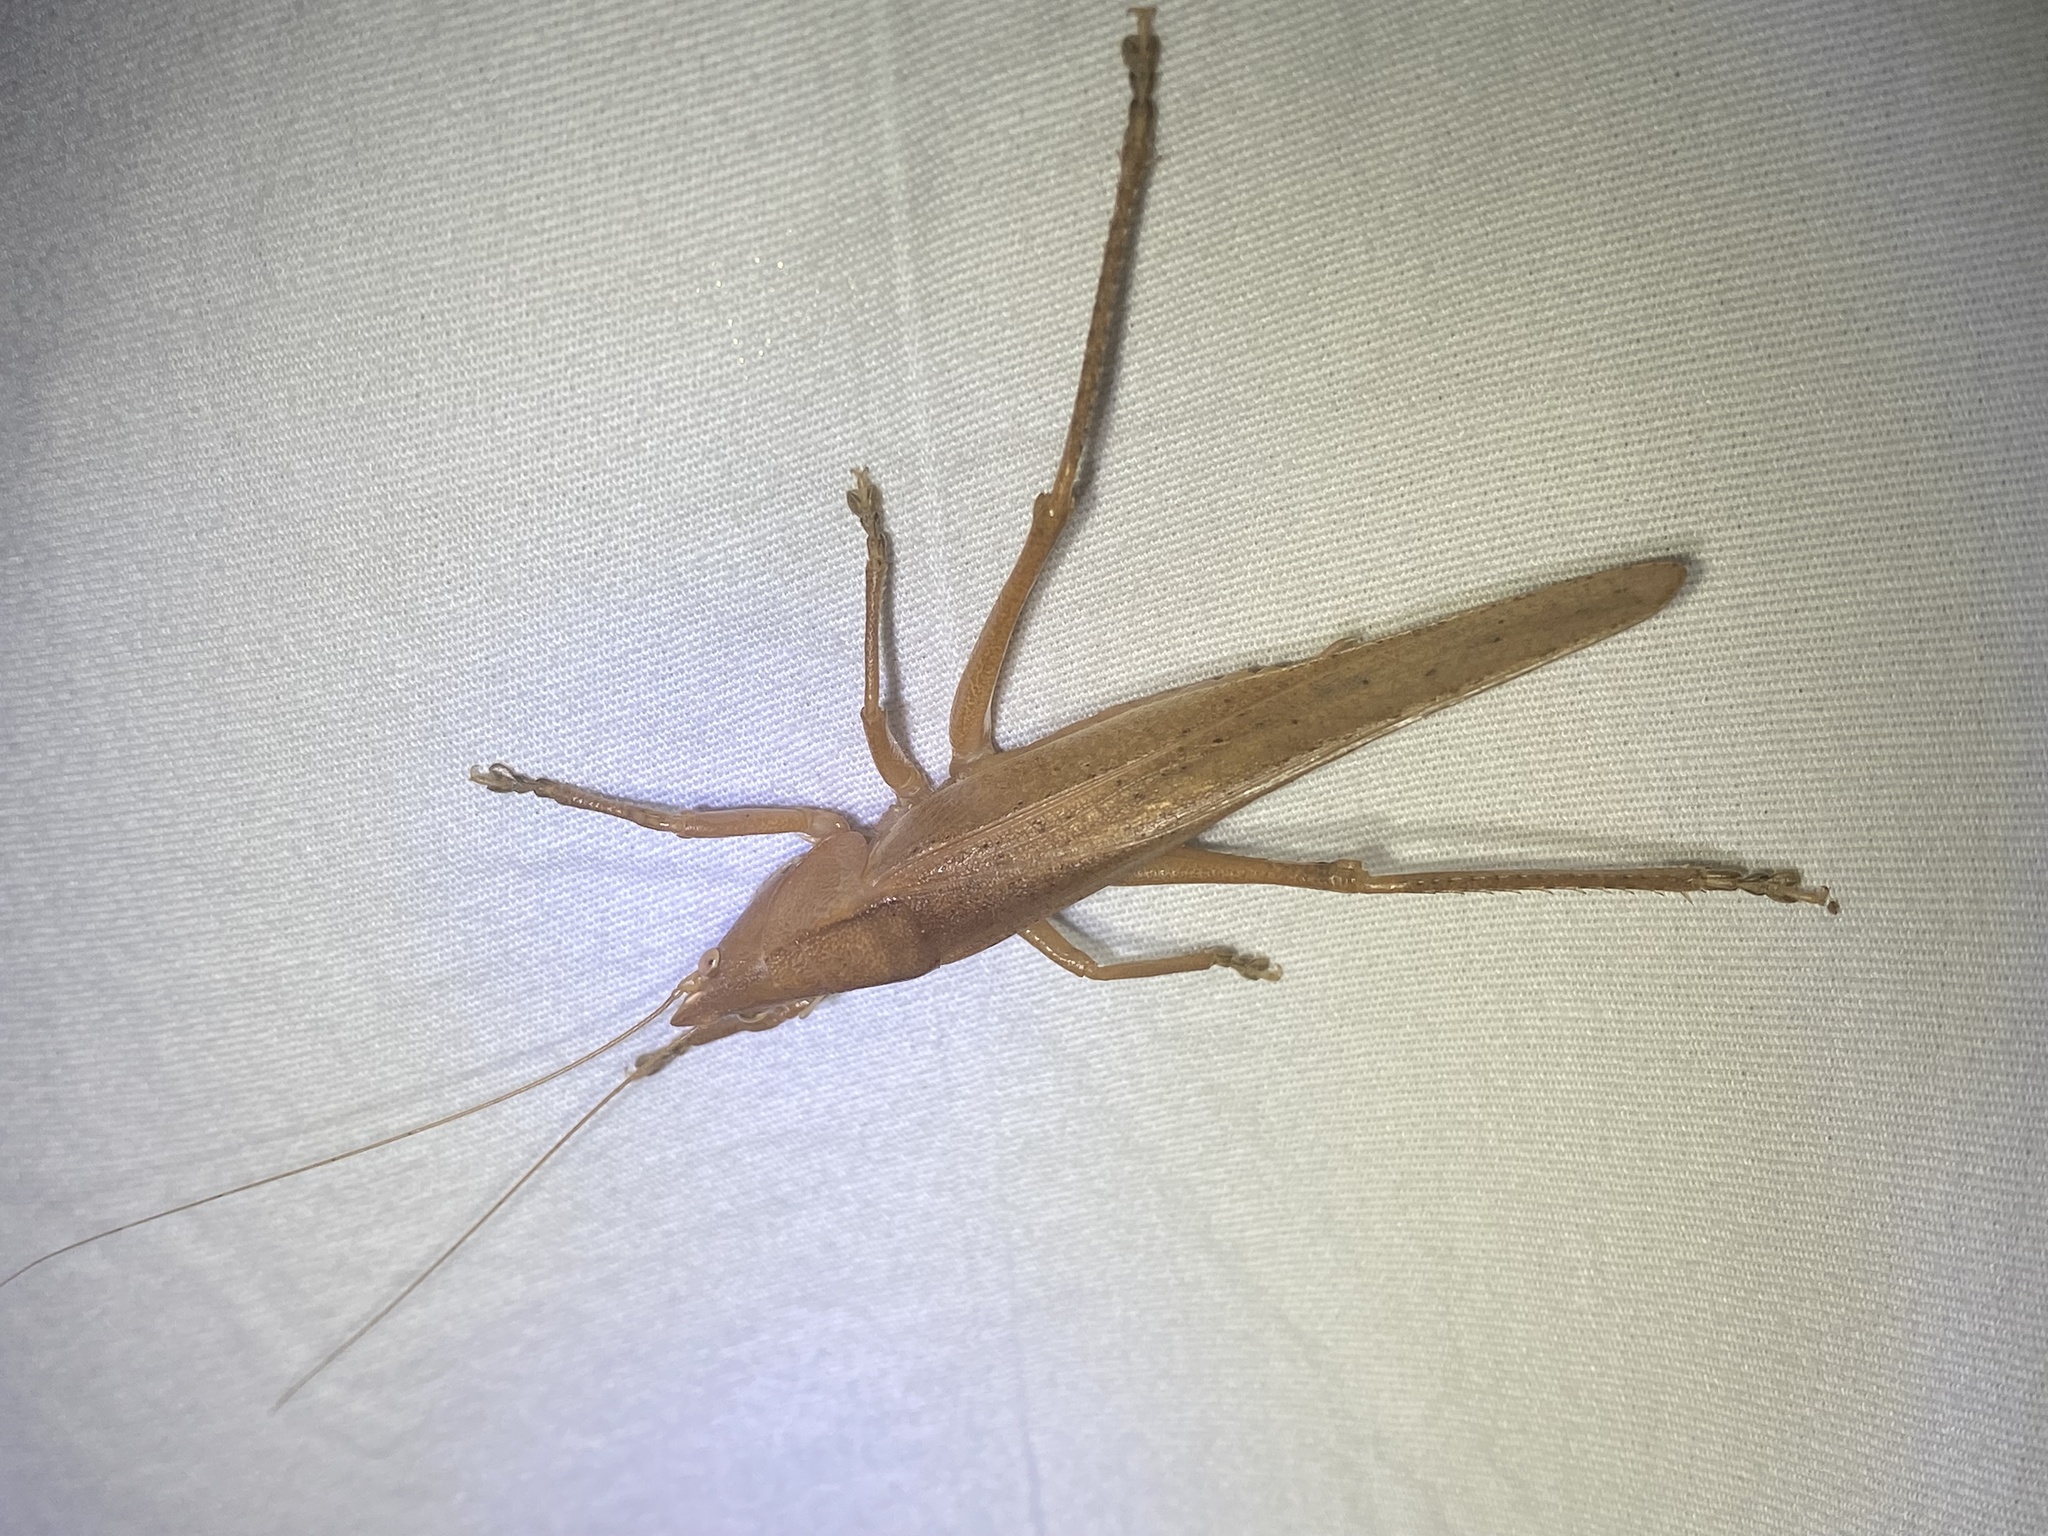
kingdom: Animalia
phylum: Arthropoda
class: Insecta
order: Orthoptera
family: Tettigoniidae
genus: Pyrgocorypha
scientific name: Pyrgocorypha uncinata
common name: Hook-faced conehead
